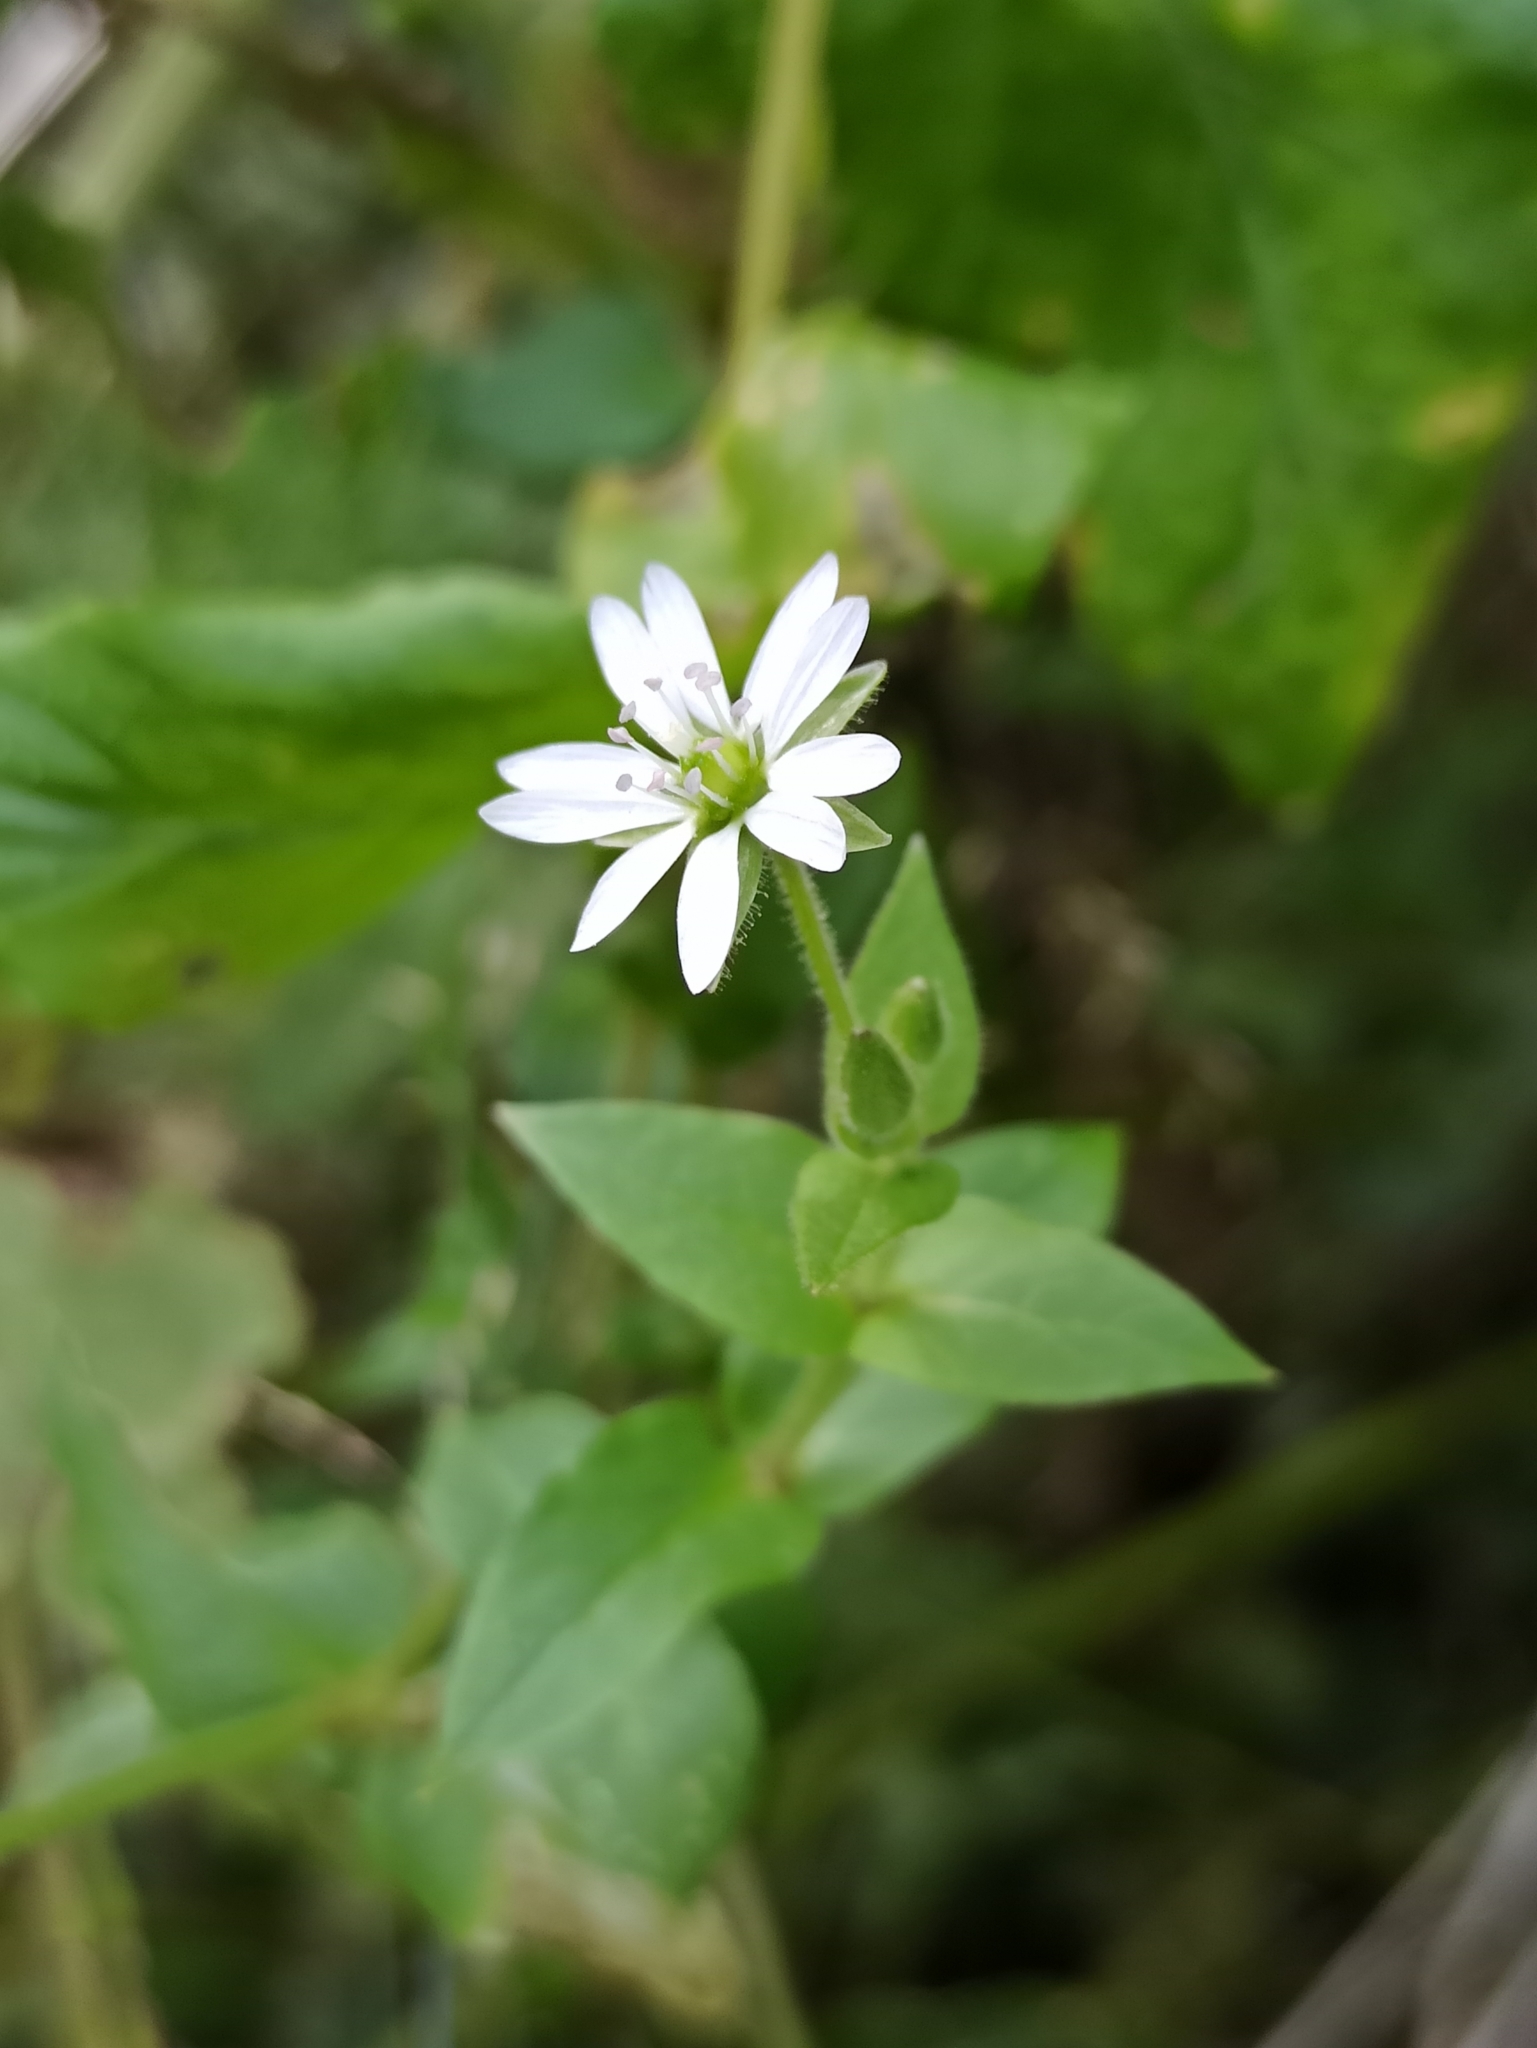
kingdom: Plantae
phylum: Tracheophyta
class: Magnoliopsida
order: Caryophyllales
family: Caryophyllaceae
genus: Stellaria
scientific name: Stellaria aquatica
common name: Water chickweed
